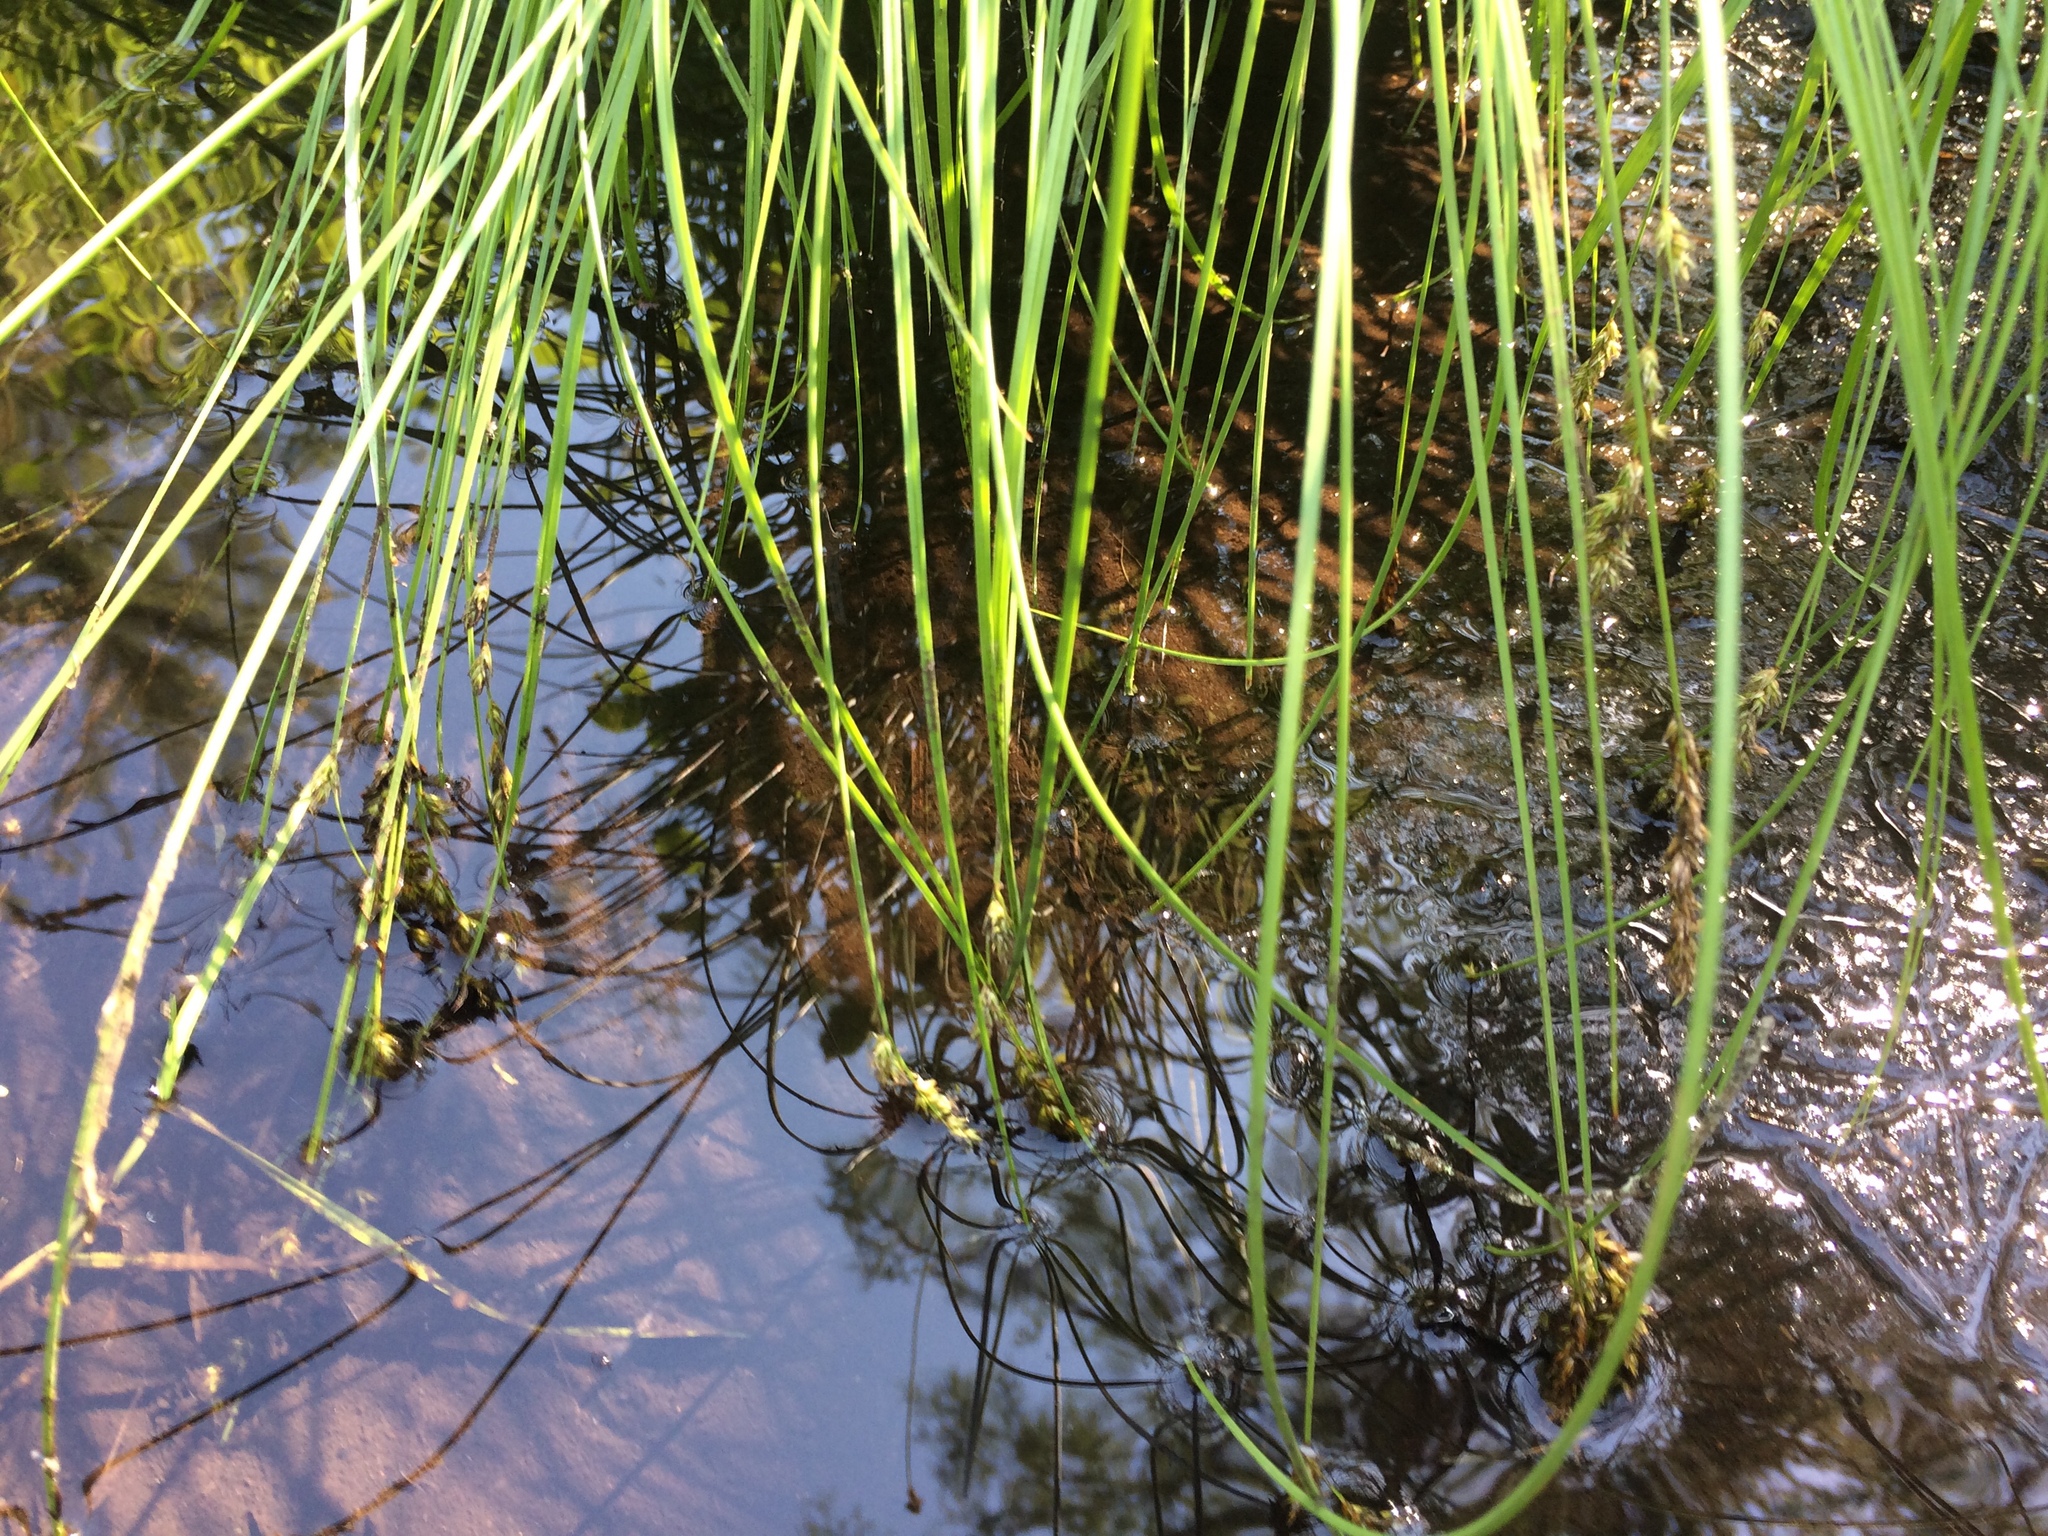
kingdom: Plantae
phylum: Tracheophyta
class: Liliopsida
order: Poales
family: Cyperaceae
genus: Carex
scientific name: Carex prairea
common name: Prairie sedge
